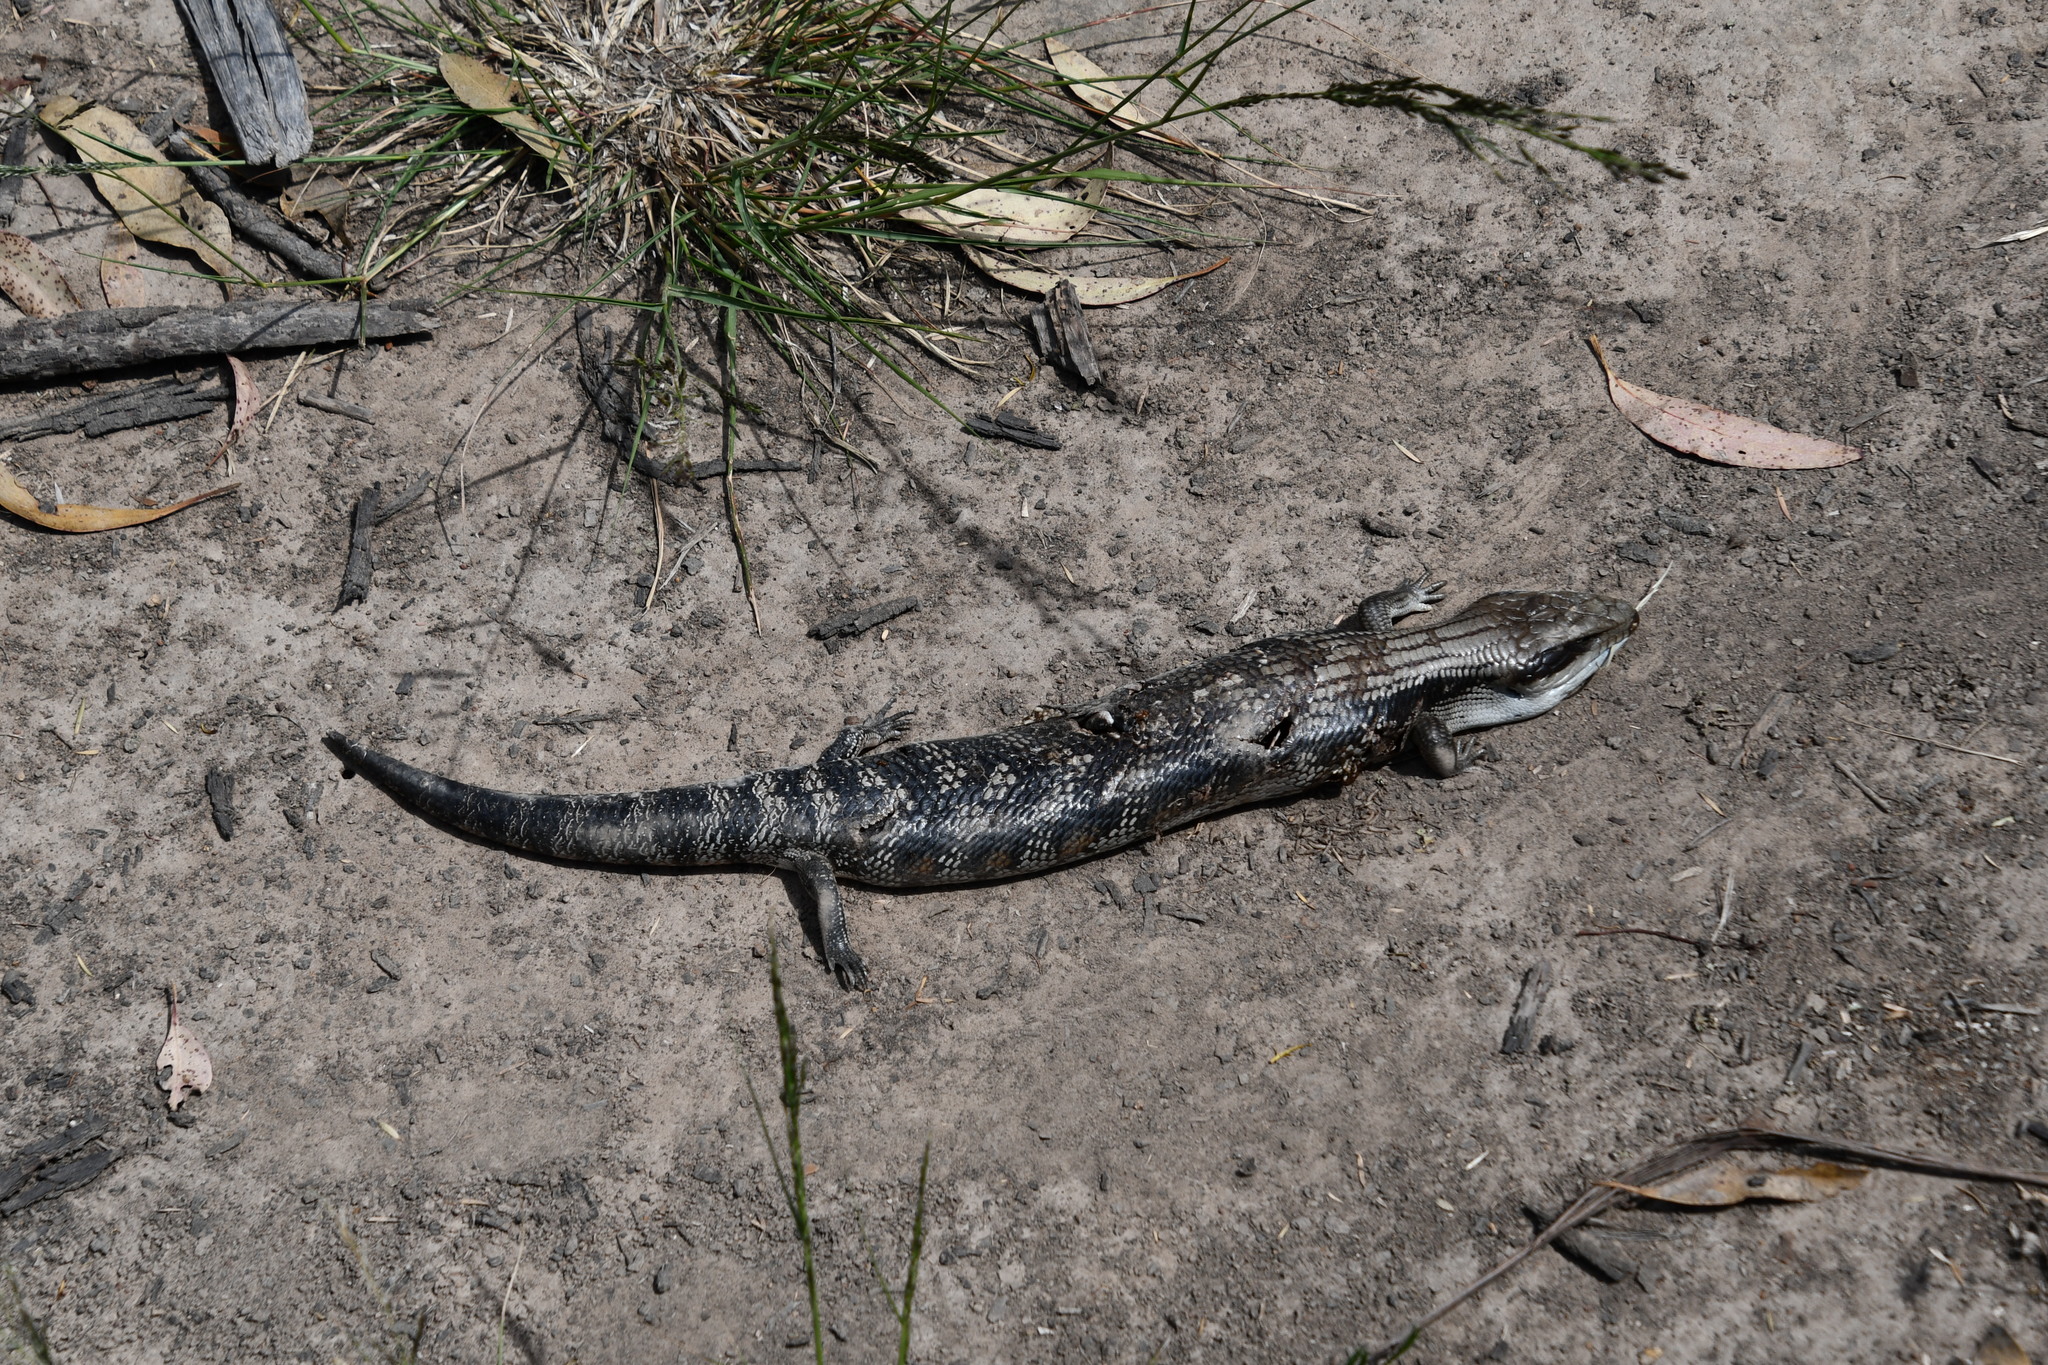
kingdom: Animalia
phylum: Chordata
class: Squamata
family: Scincidae
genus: Tiliqua
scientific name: Tiliqua scincoides
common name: Common bluetongue
